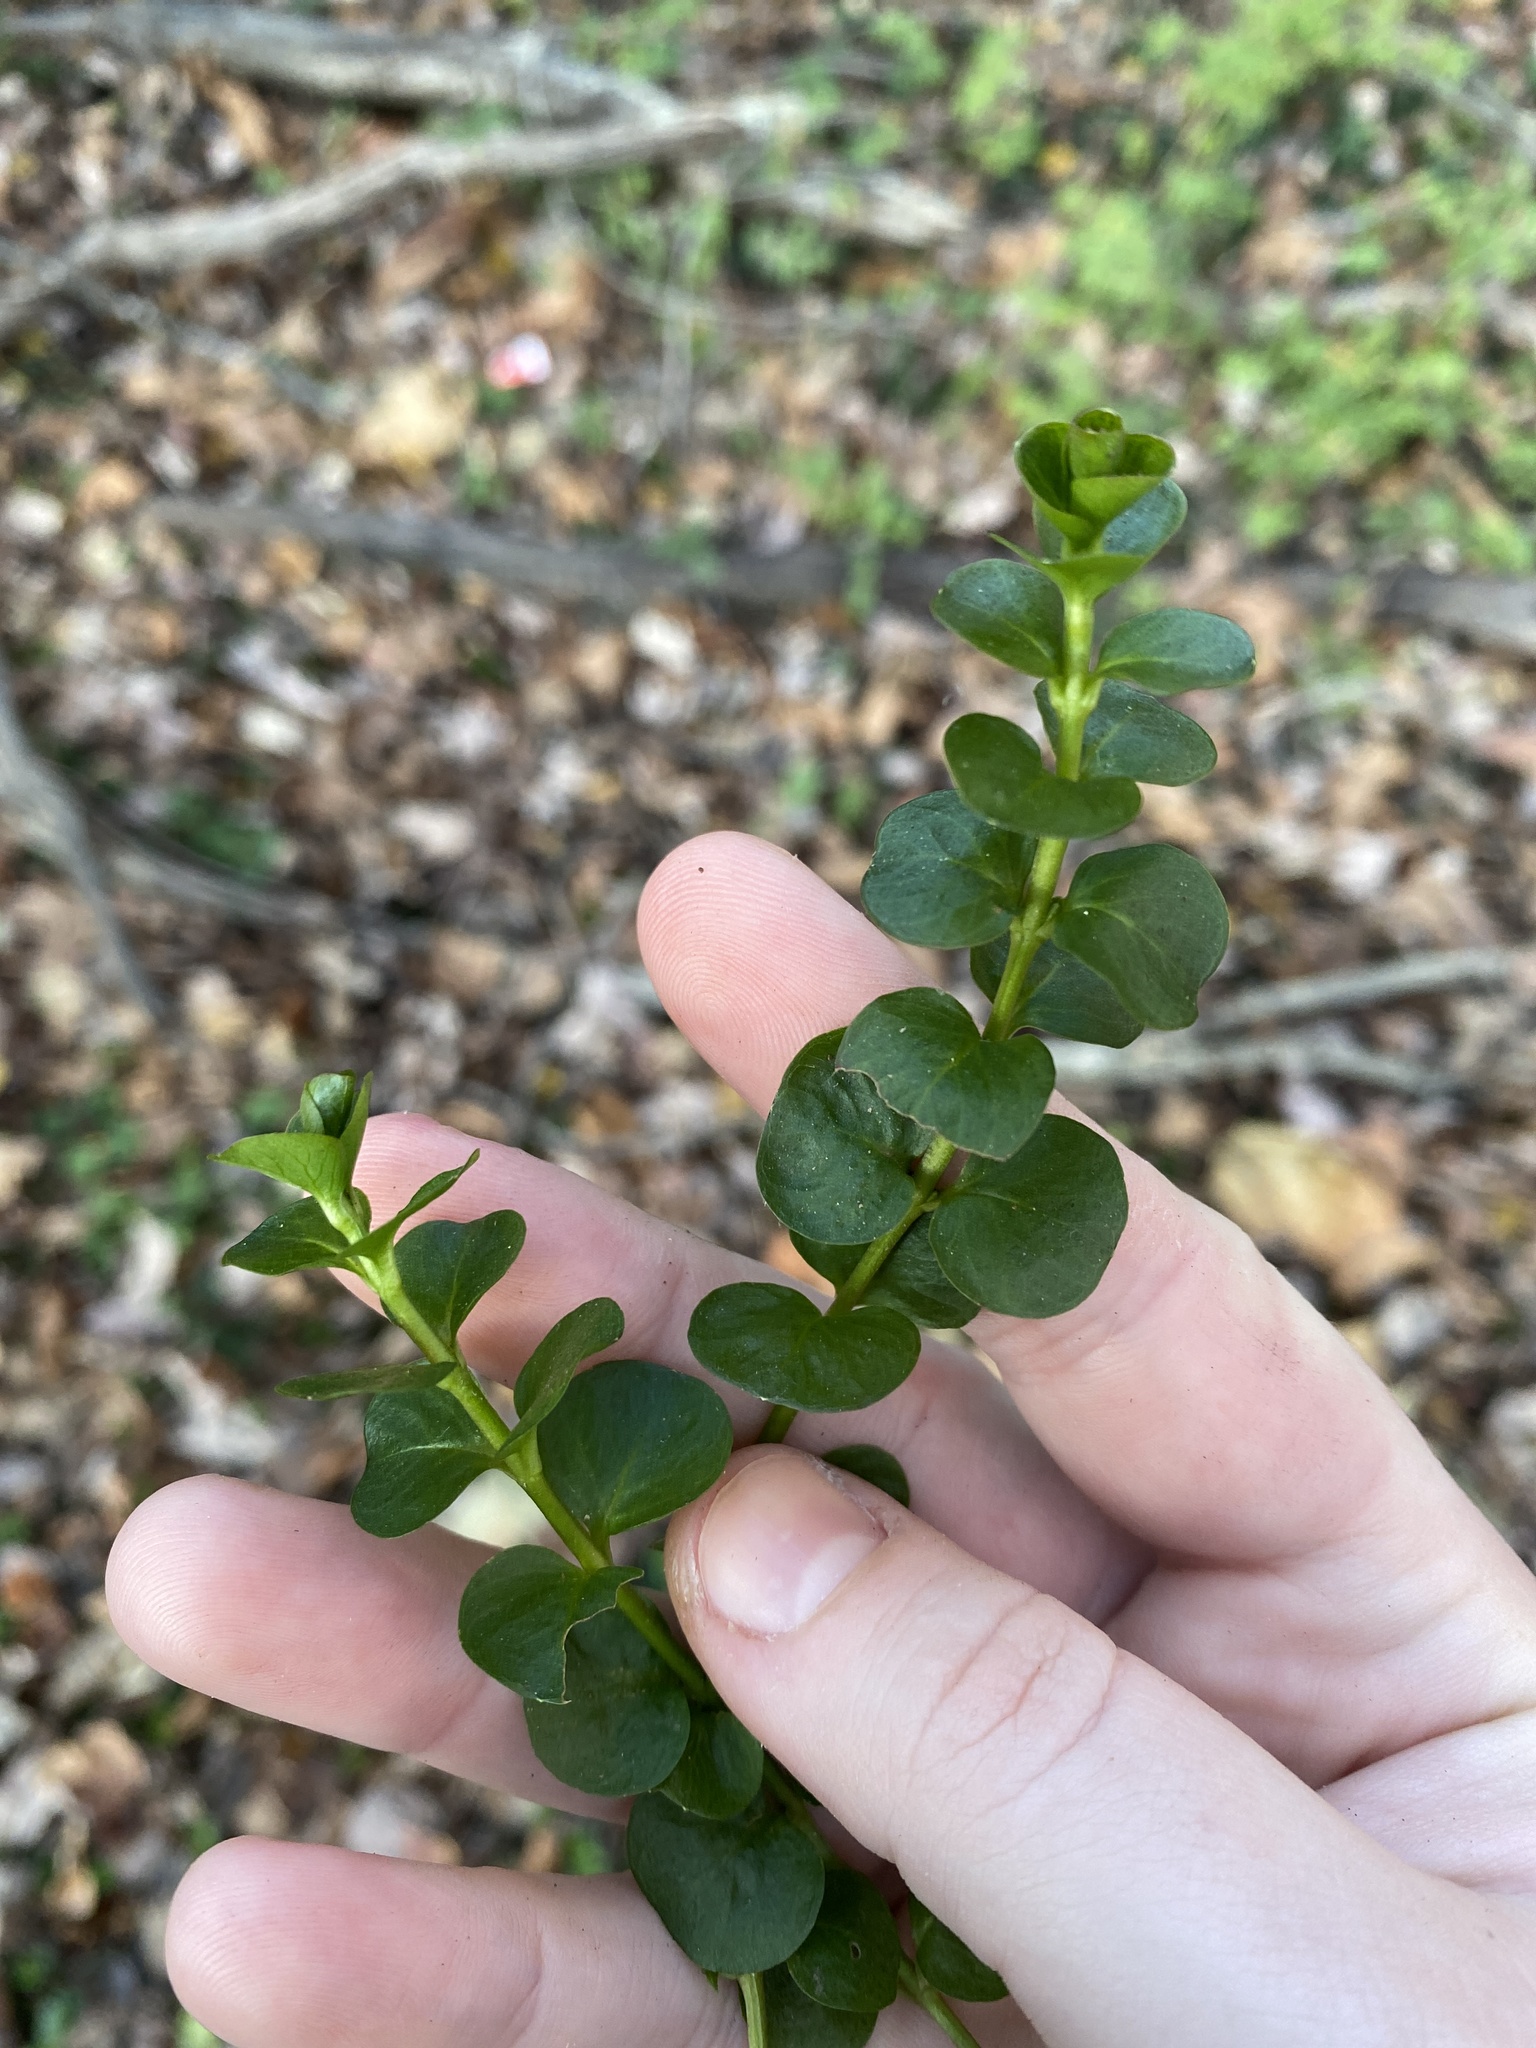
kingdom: Plantae
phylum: Tracheophyta
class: Magnoliopsida
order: Ericales
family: Primulaceae
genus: Lysimachia
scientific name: Lysimachia nummularia
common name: Moneywort
